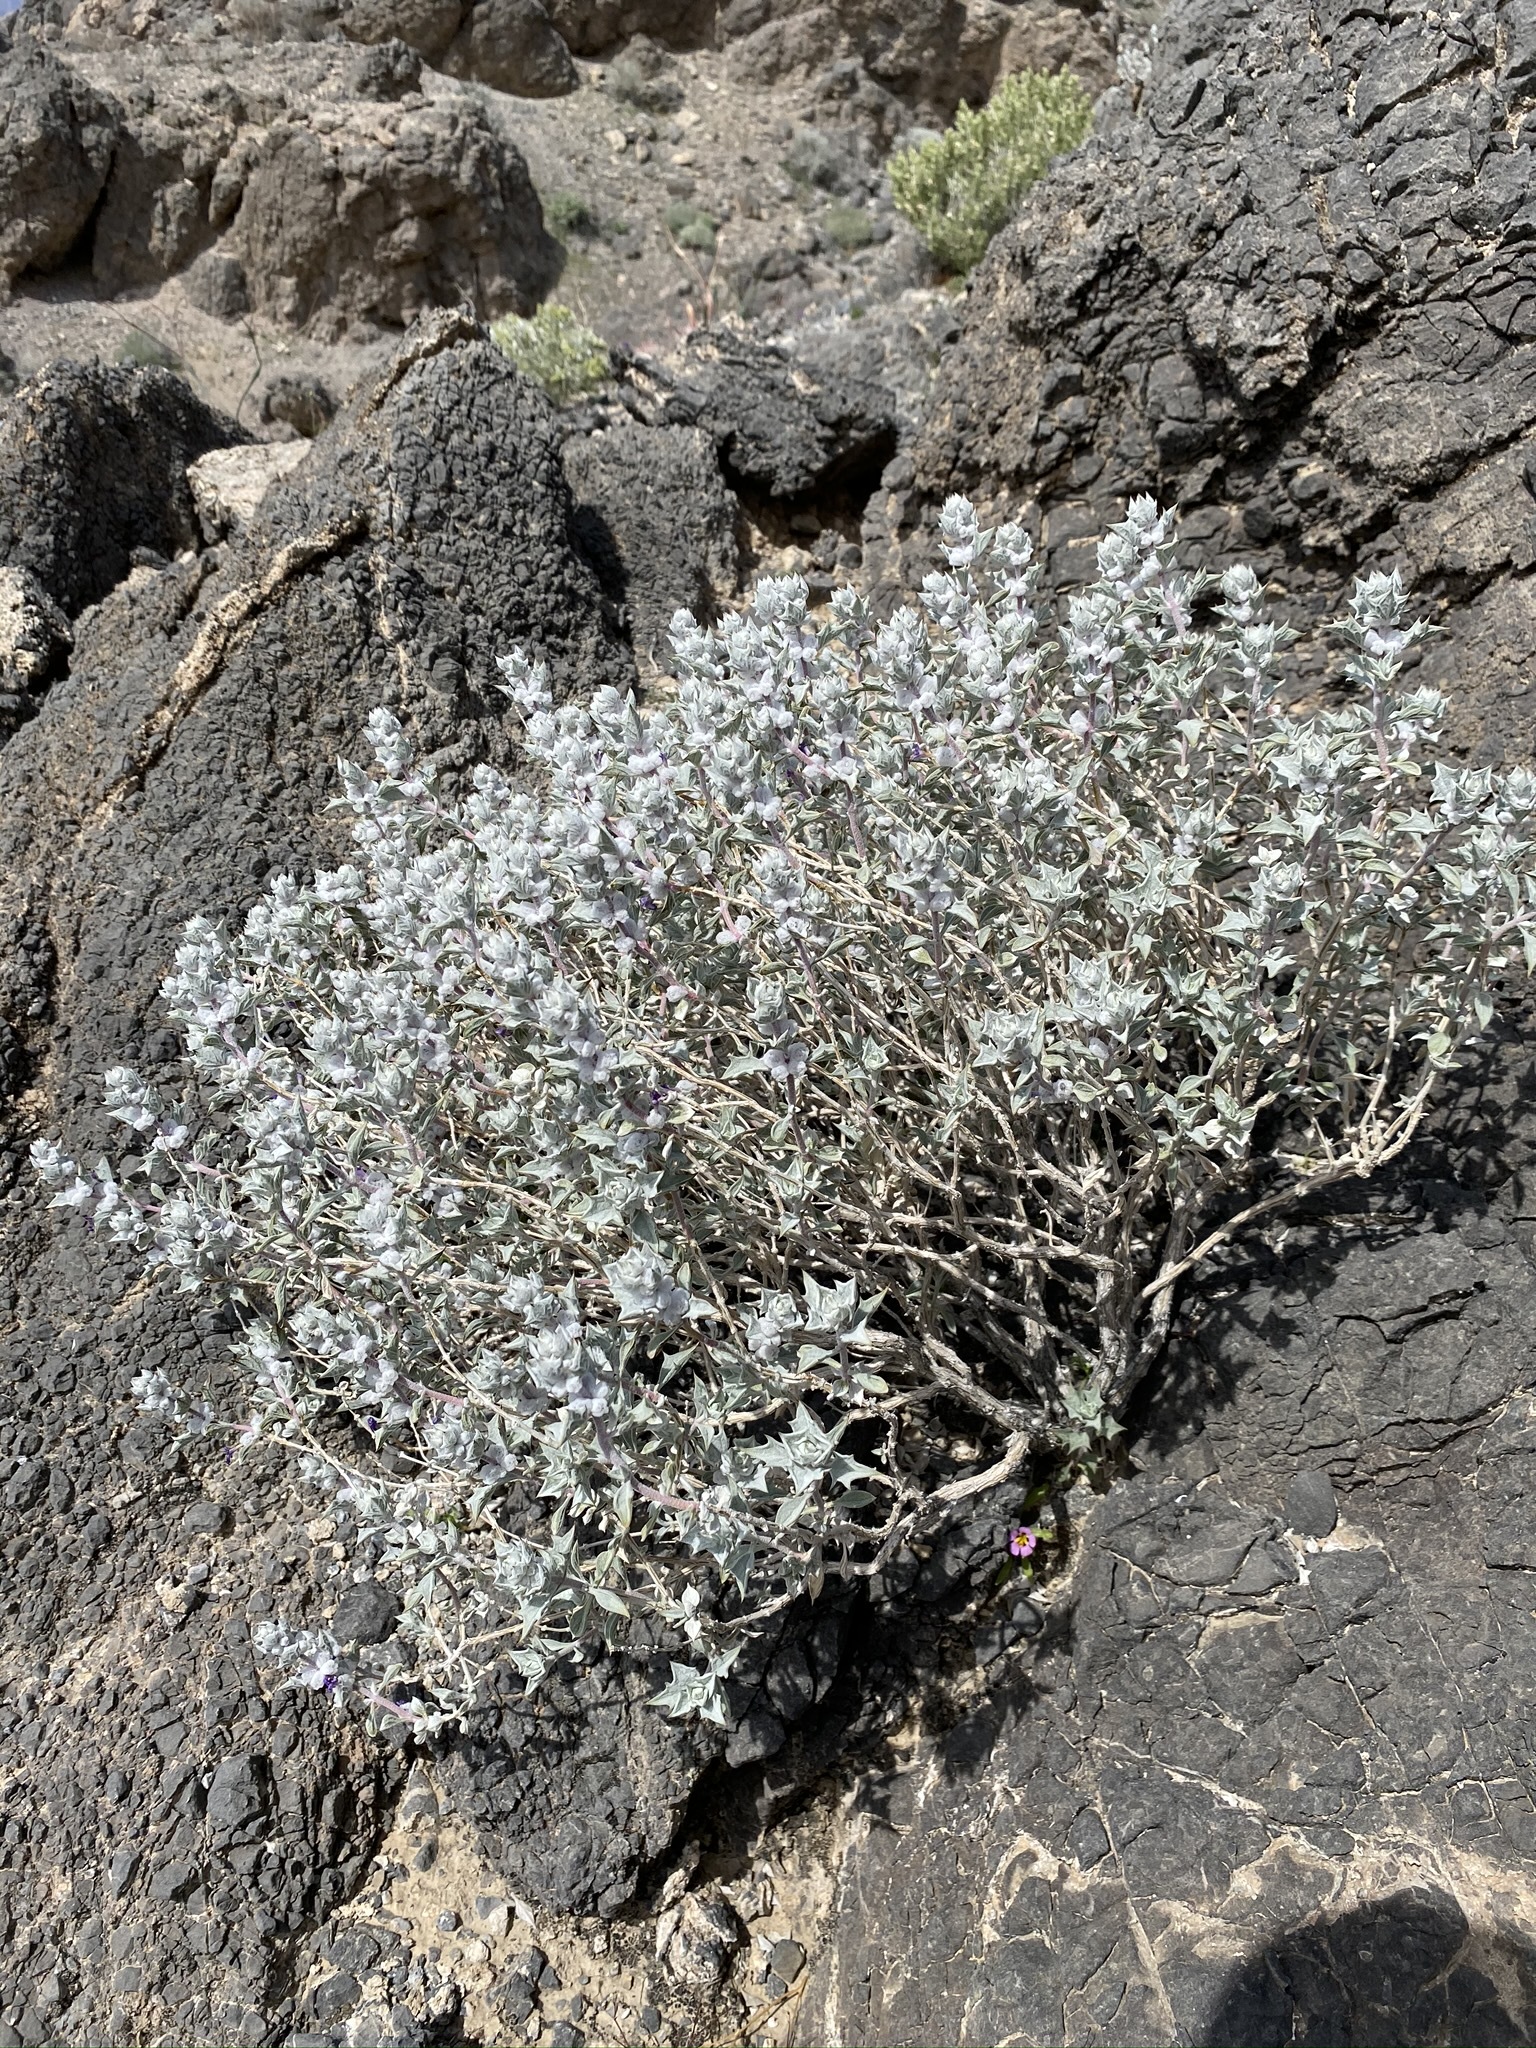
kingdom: Plantae
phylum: Tracheophyta
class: Magnoliopsida
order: Lamiales
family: Lamiaceae
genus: Salvia
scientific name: Salvia funerea
